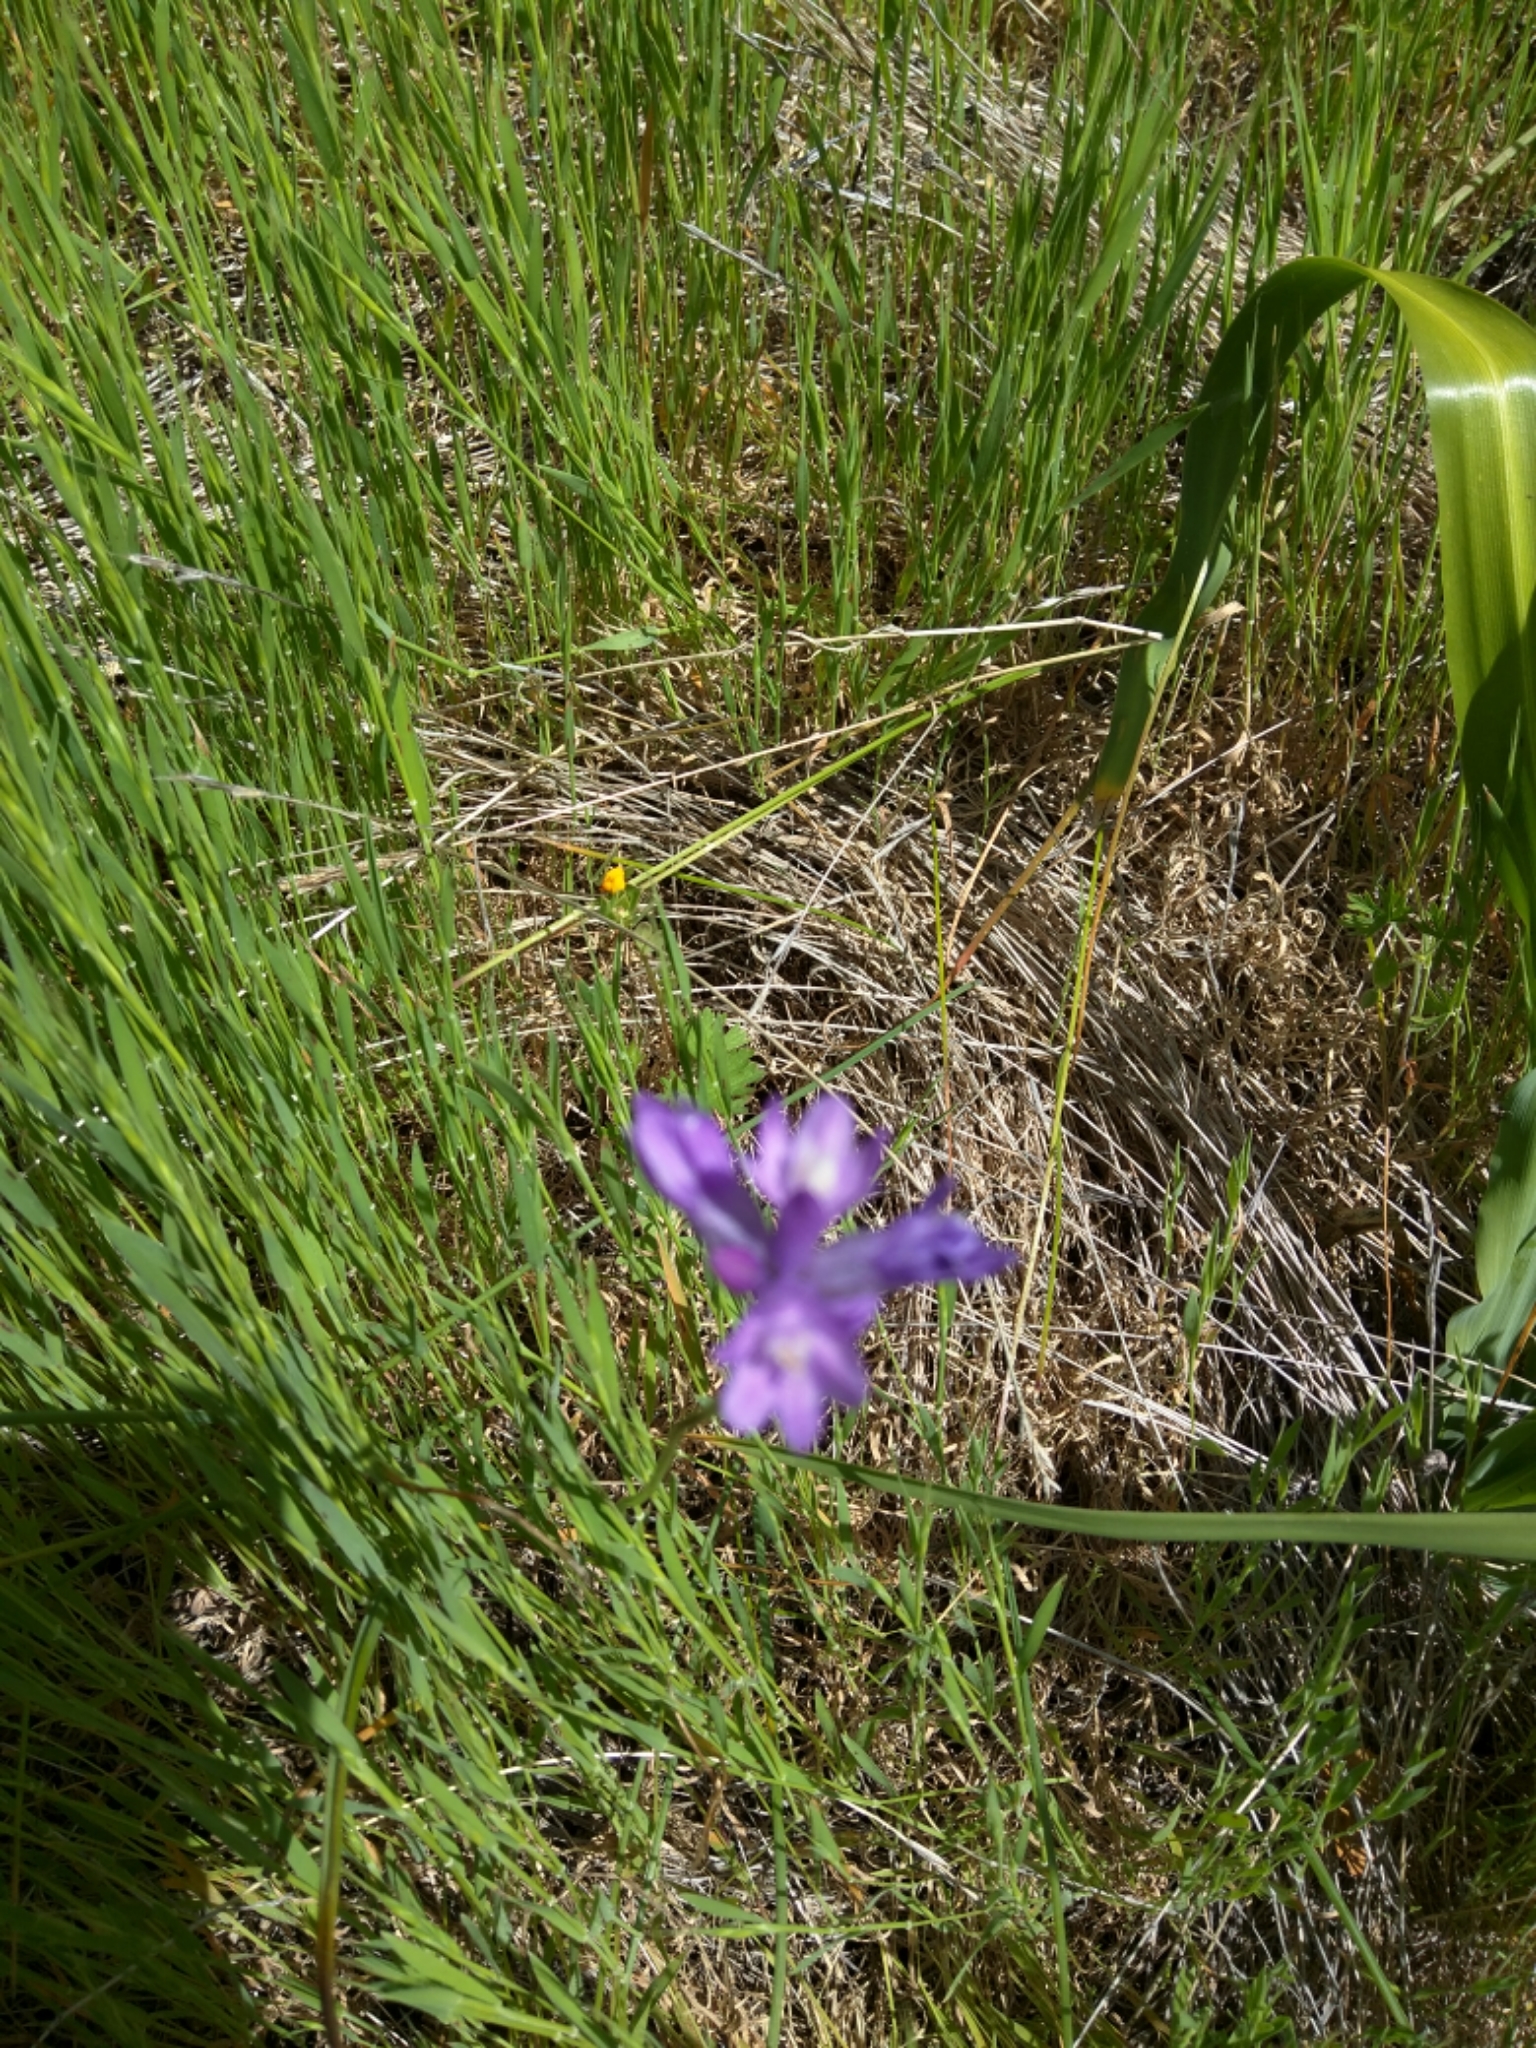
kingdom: Plantae
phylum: Tracheophyta
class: Liliopsida
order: Asparagales
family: Asparagaceae
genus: Dipterostemon
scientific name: Dipterostemon capitatus
